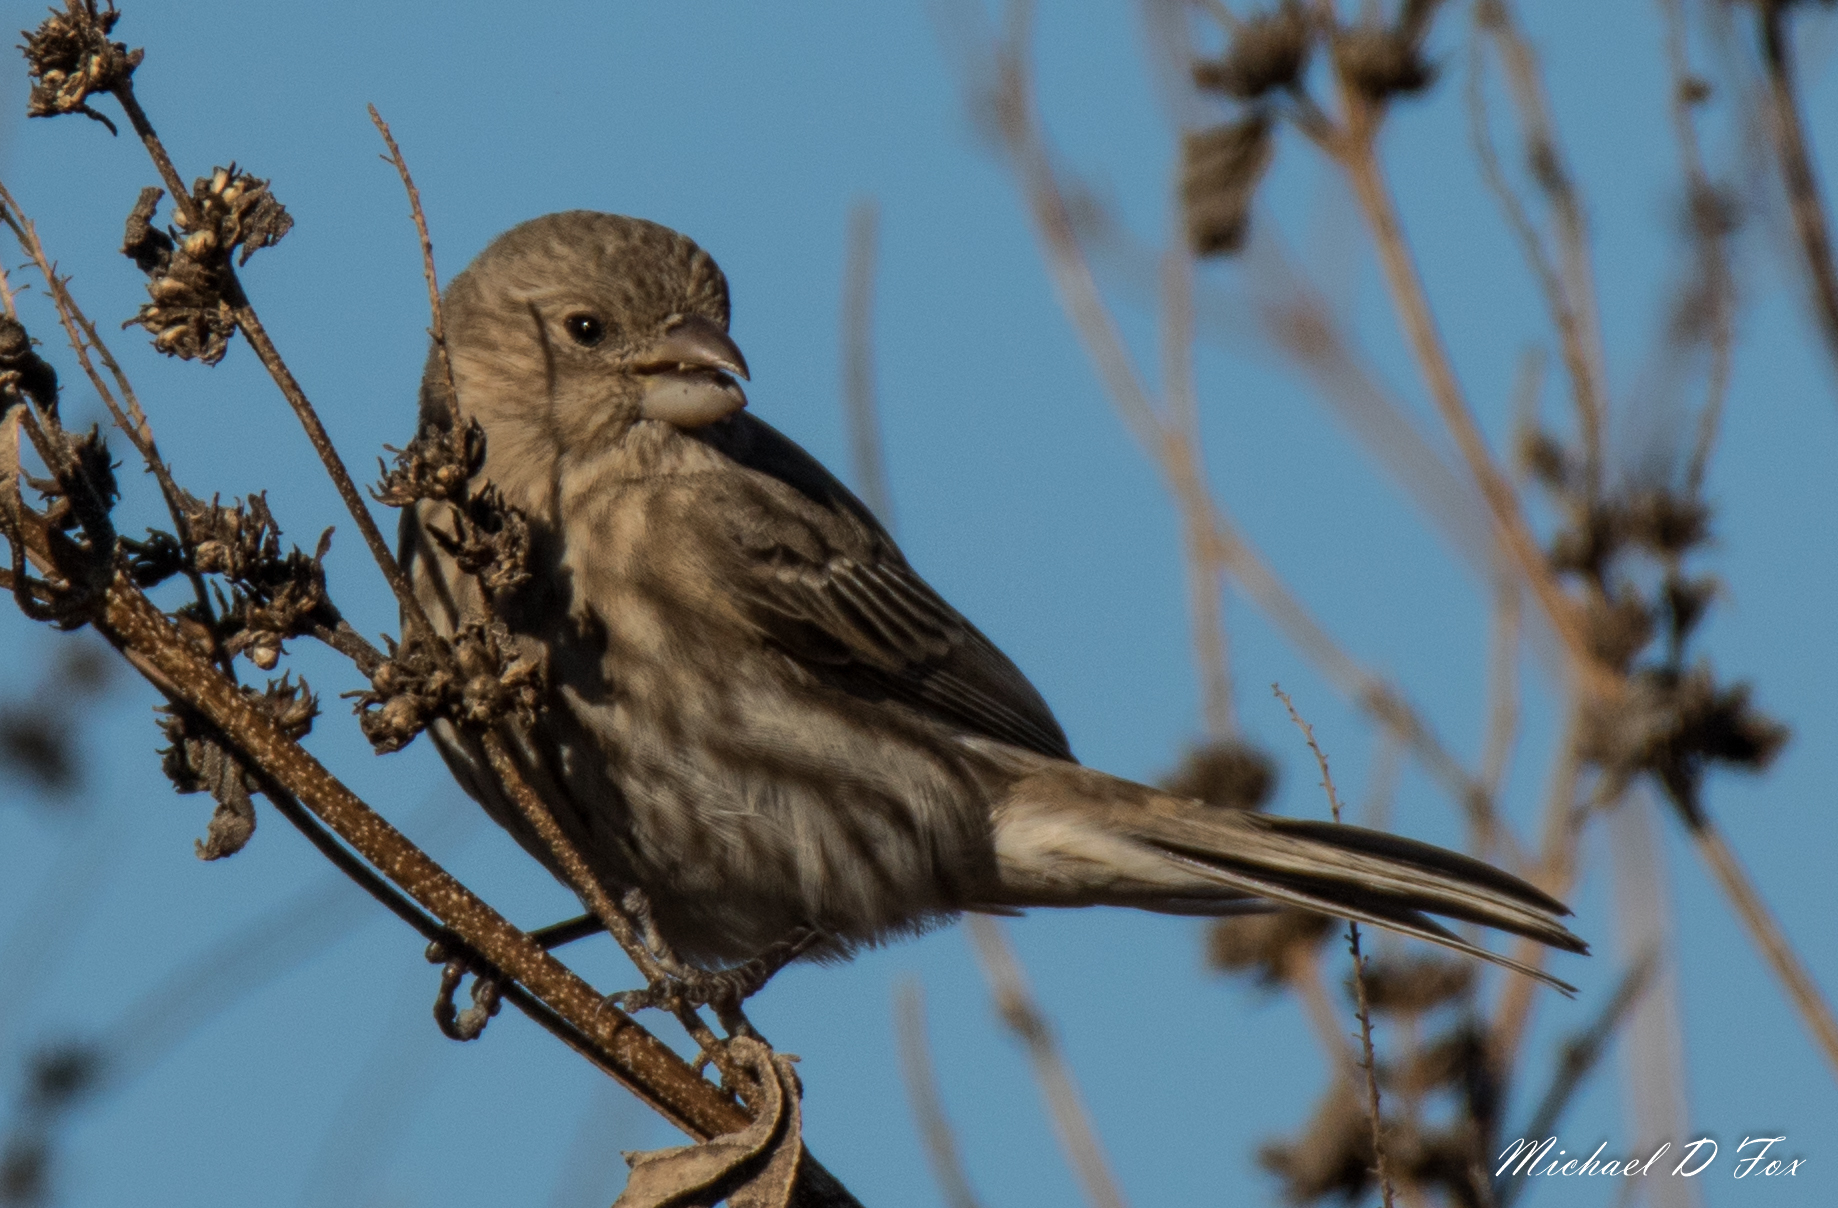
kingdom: Animalia
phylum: Chordata
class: Aves
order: Passeriformes
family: Fringillidae
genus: Haemorhous
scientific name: Haemorhous mexicanus
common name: House finch
